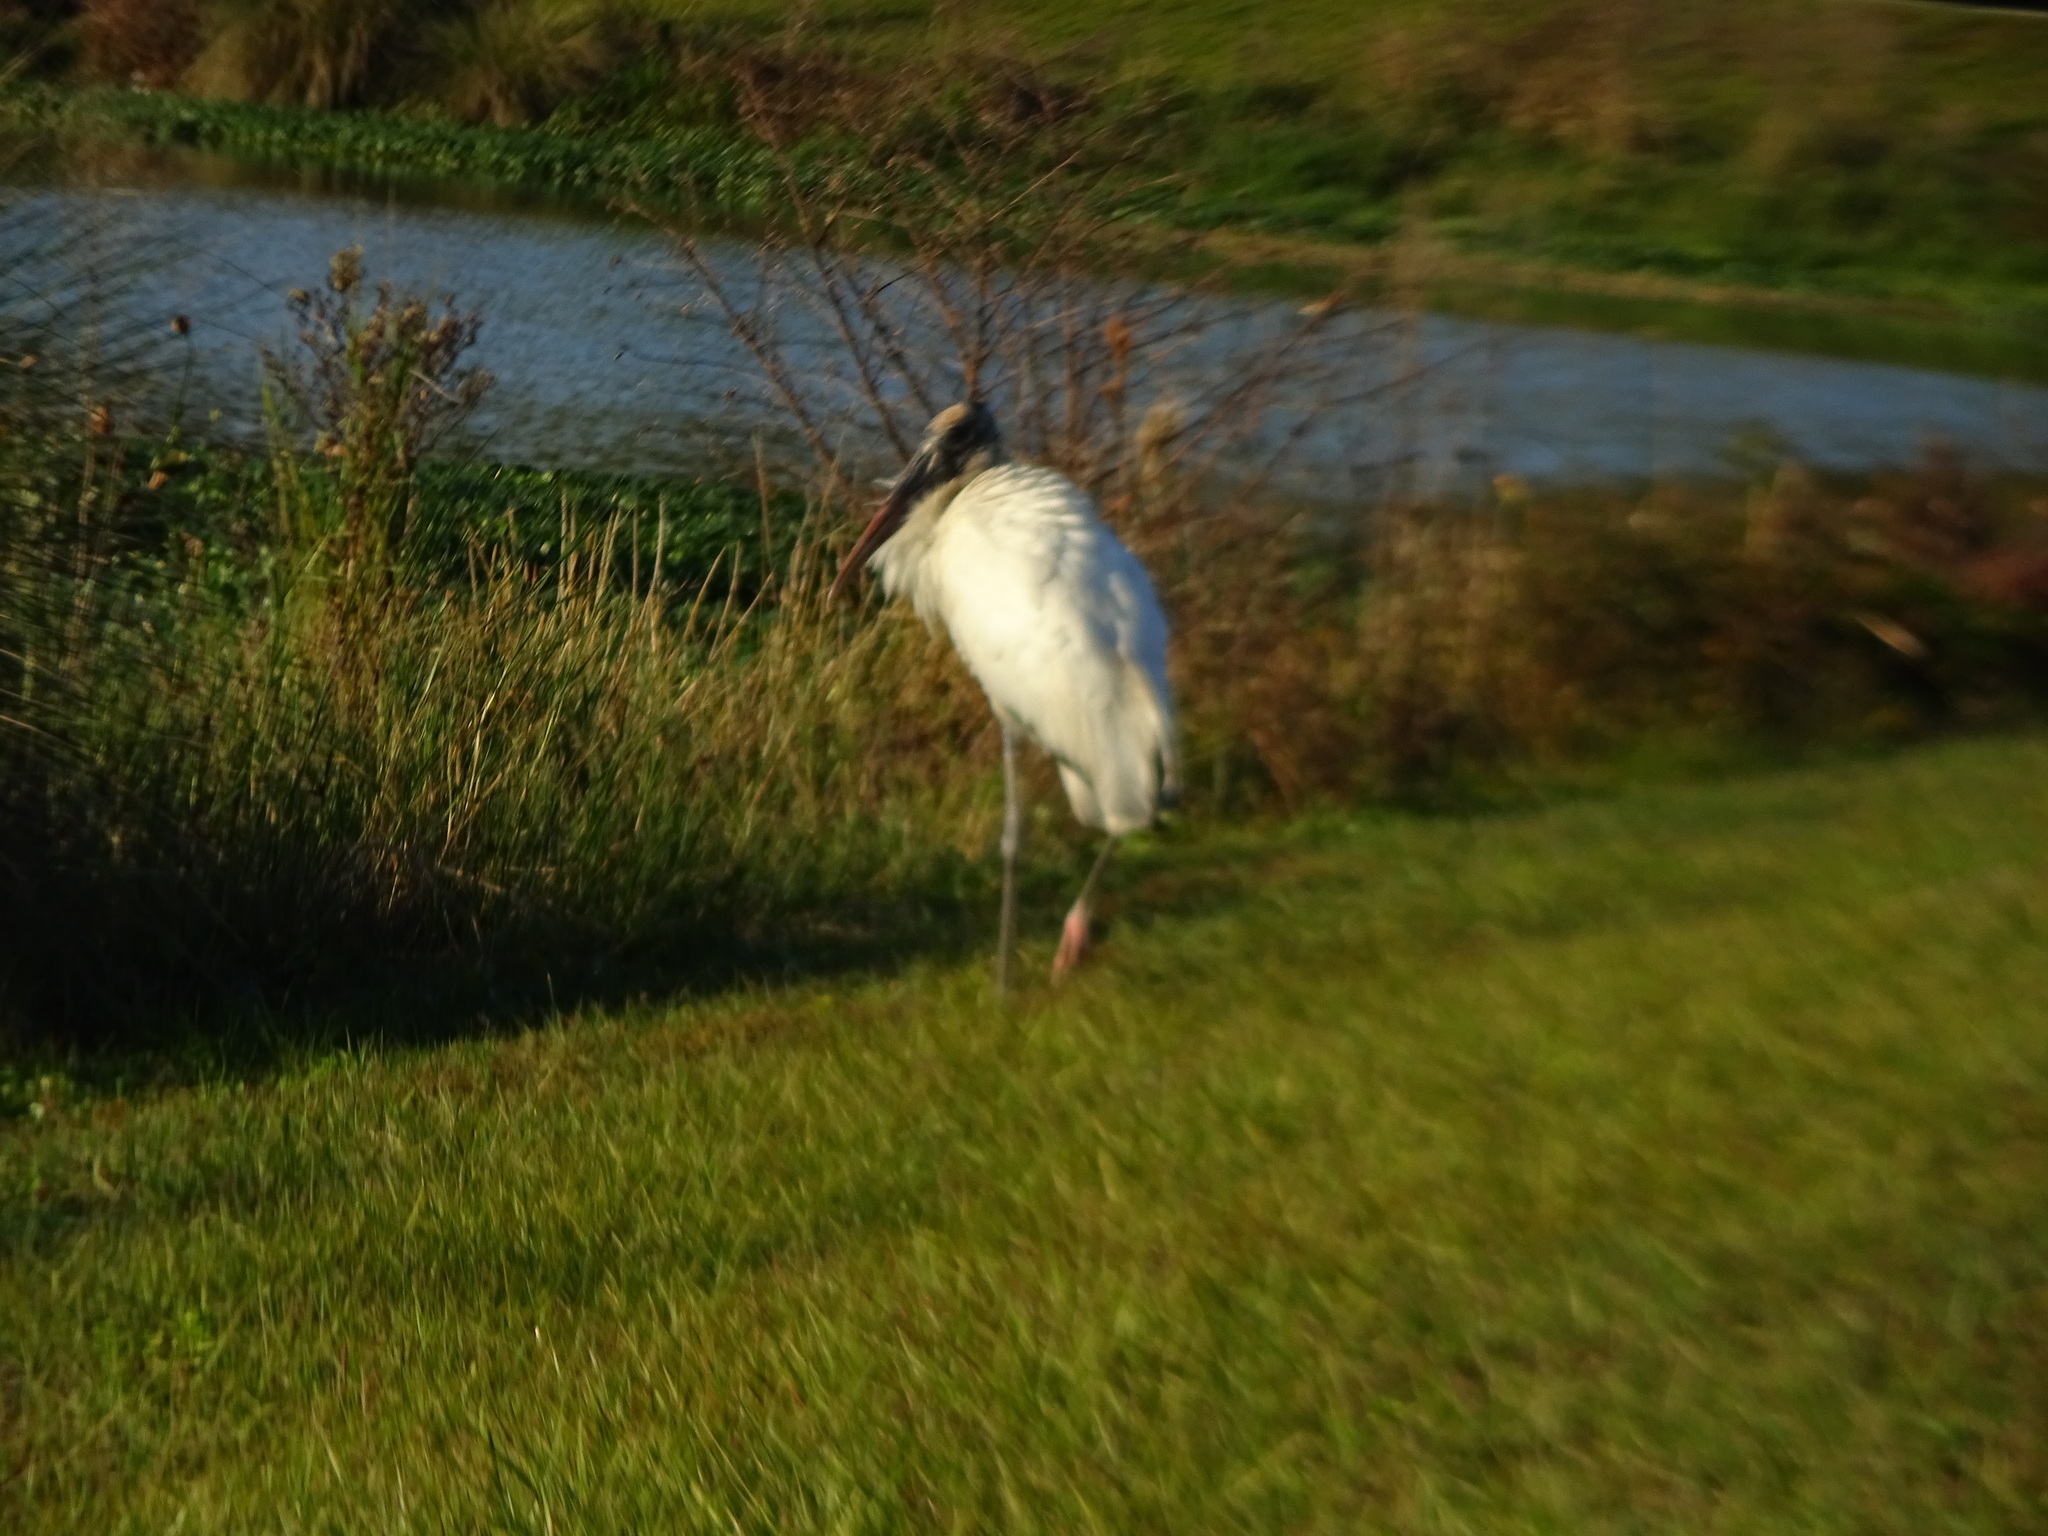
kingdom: Animalia
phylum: Chordata
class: Aves
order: Ciconiiformes
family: Ciconiidae
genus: Mycteria
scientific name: Mycteria americana
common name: Wood stork
